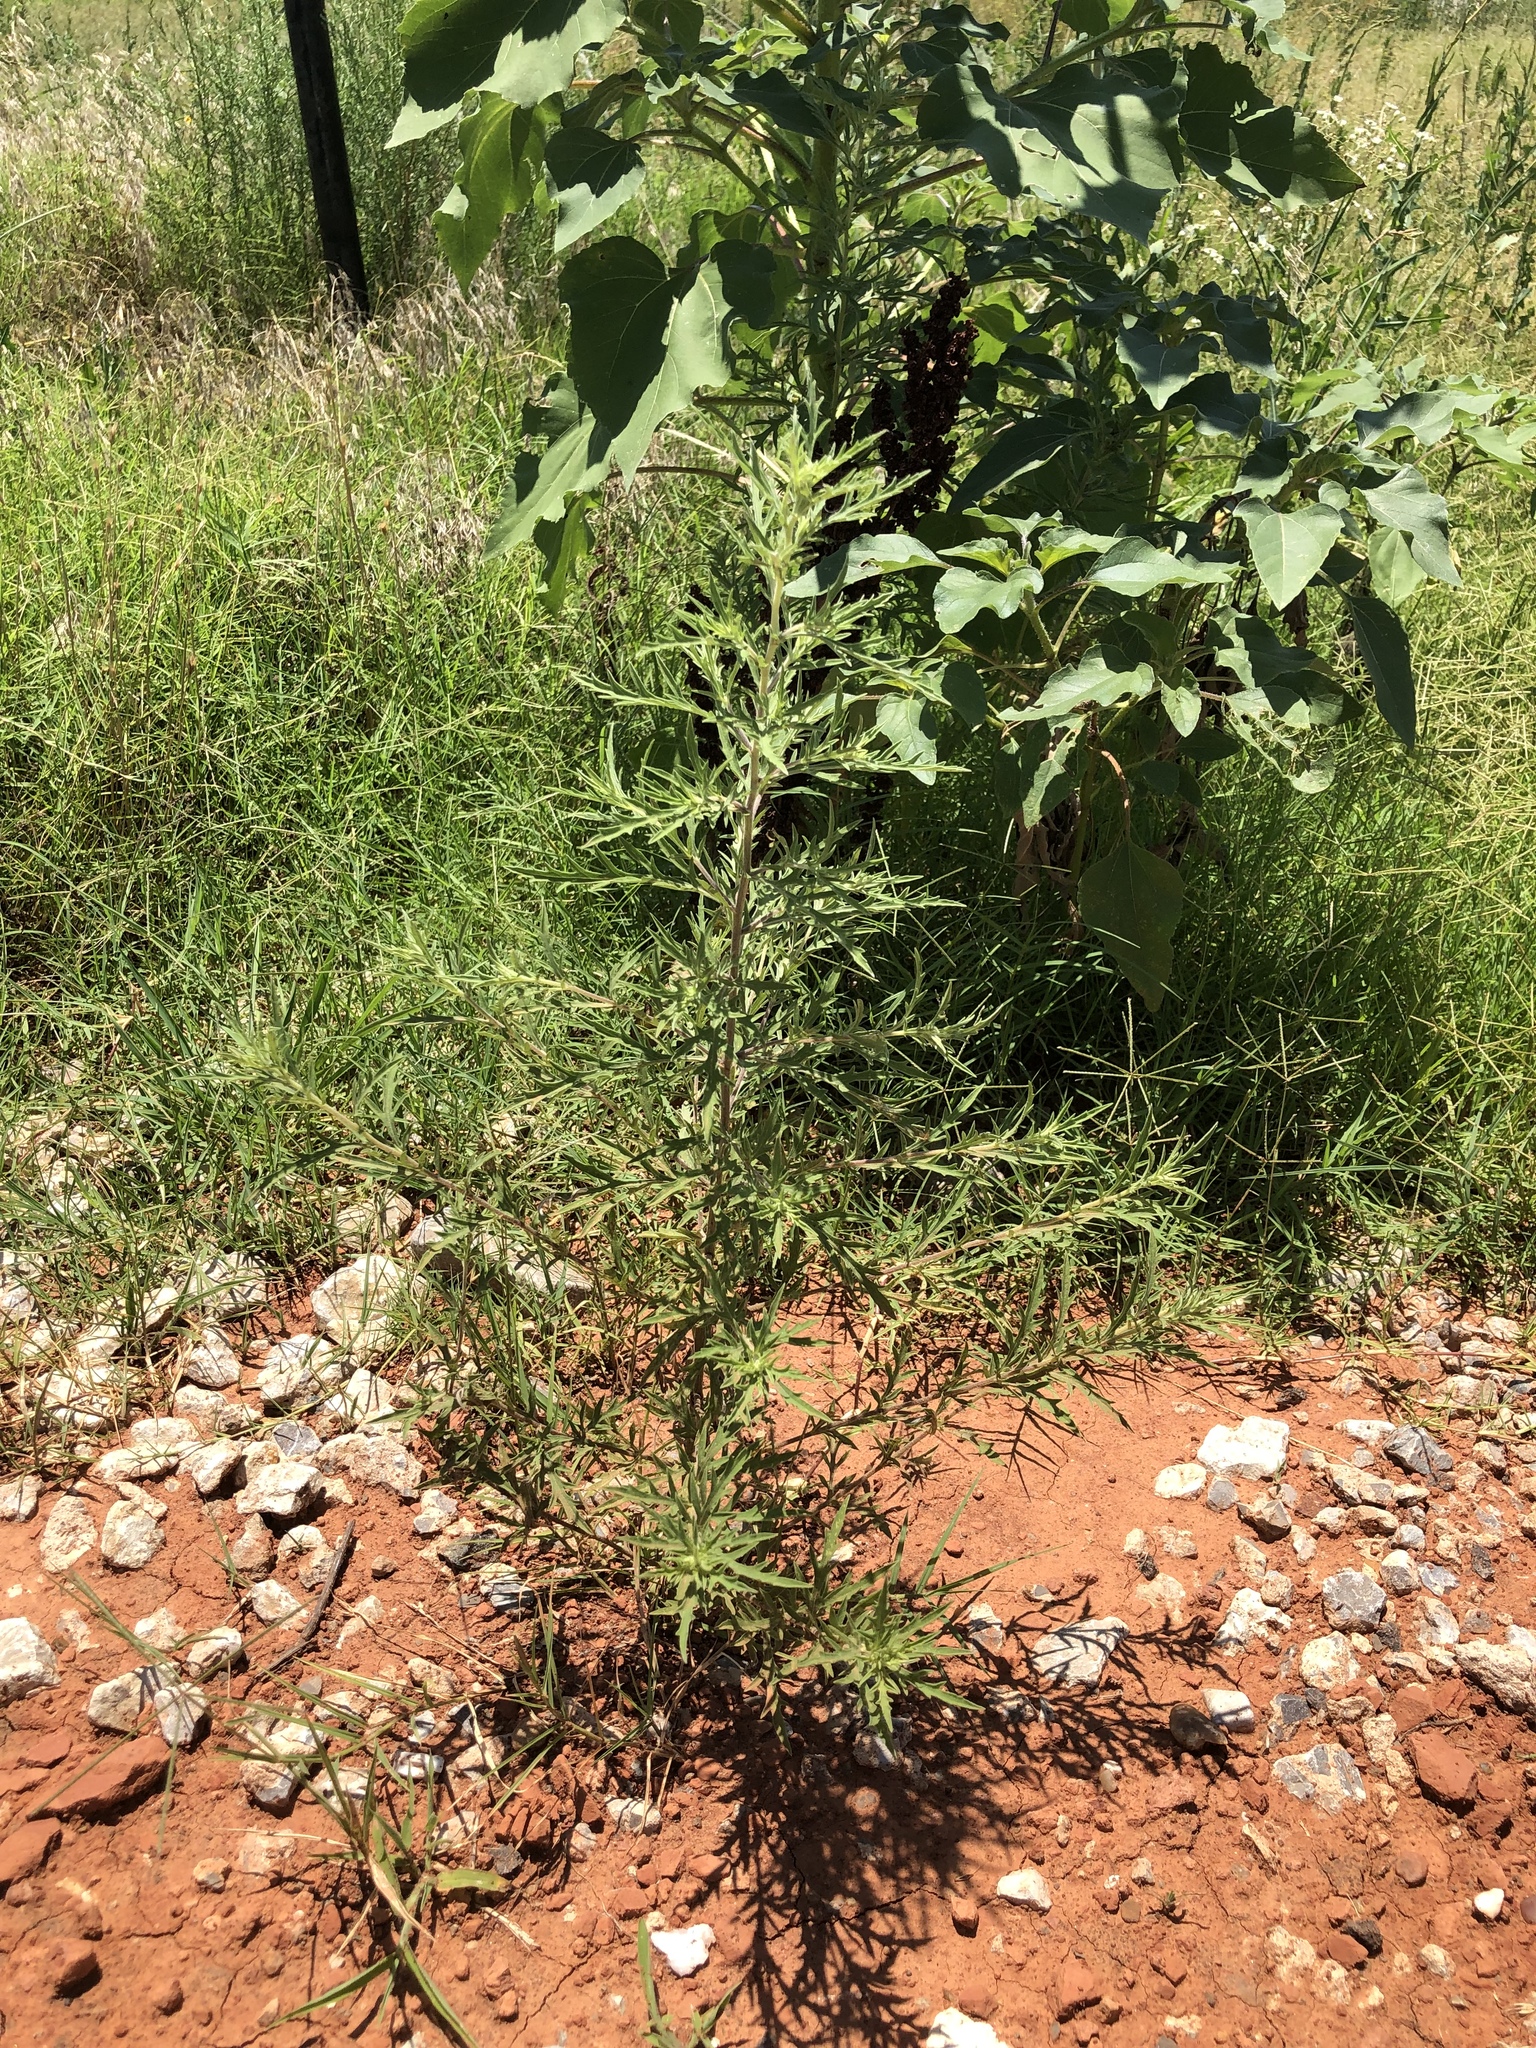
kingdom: Plantae
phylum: Tracheophyta
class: Magnoliopsida
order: Asterales
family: Asteraceae
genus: Ambrosia
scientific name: Ambrosia psilostachya
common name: Perennial ragweed
